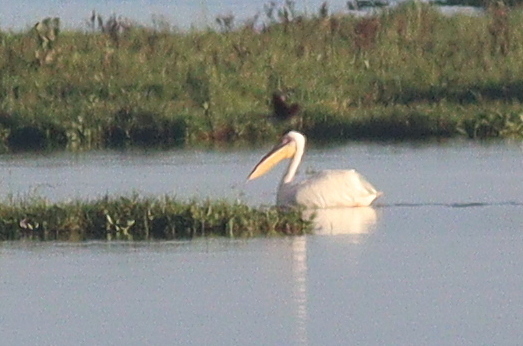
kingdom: Animalia
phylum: Chordata
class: Aves
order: Pelecaniformes
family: Pelecanidae
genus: Pelecanus
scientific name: Pelecanus onocrotalus
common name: Great white pelican
